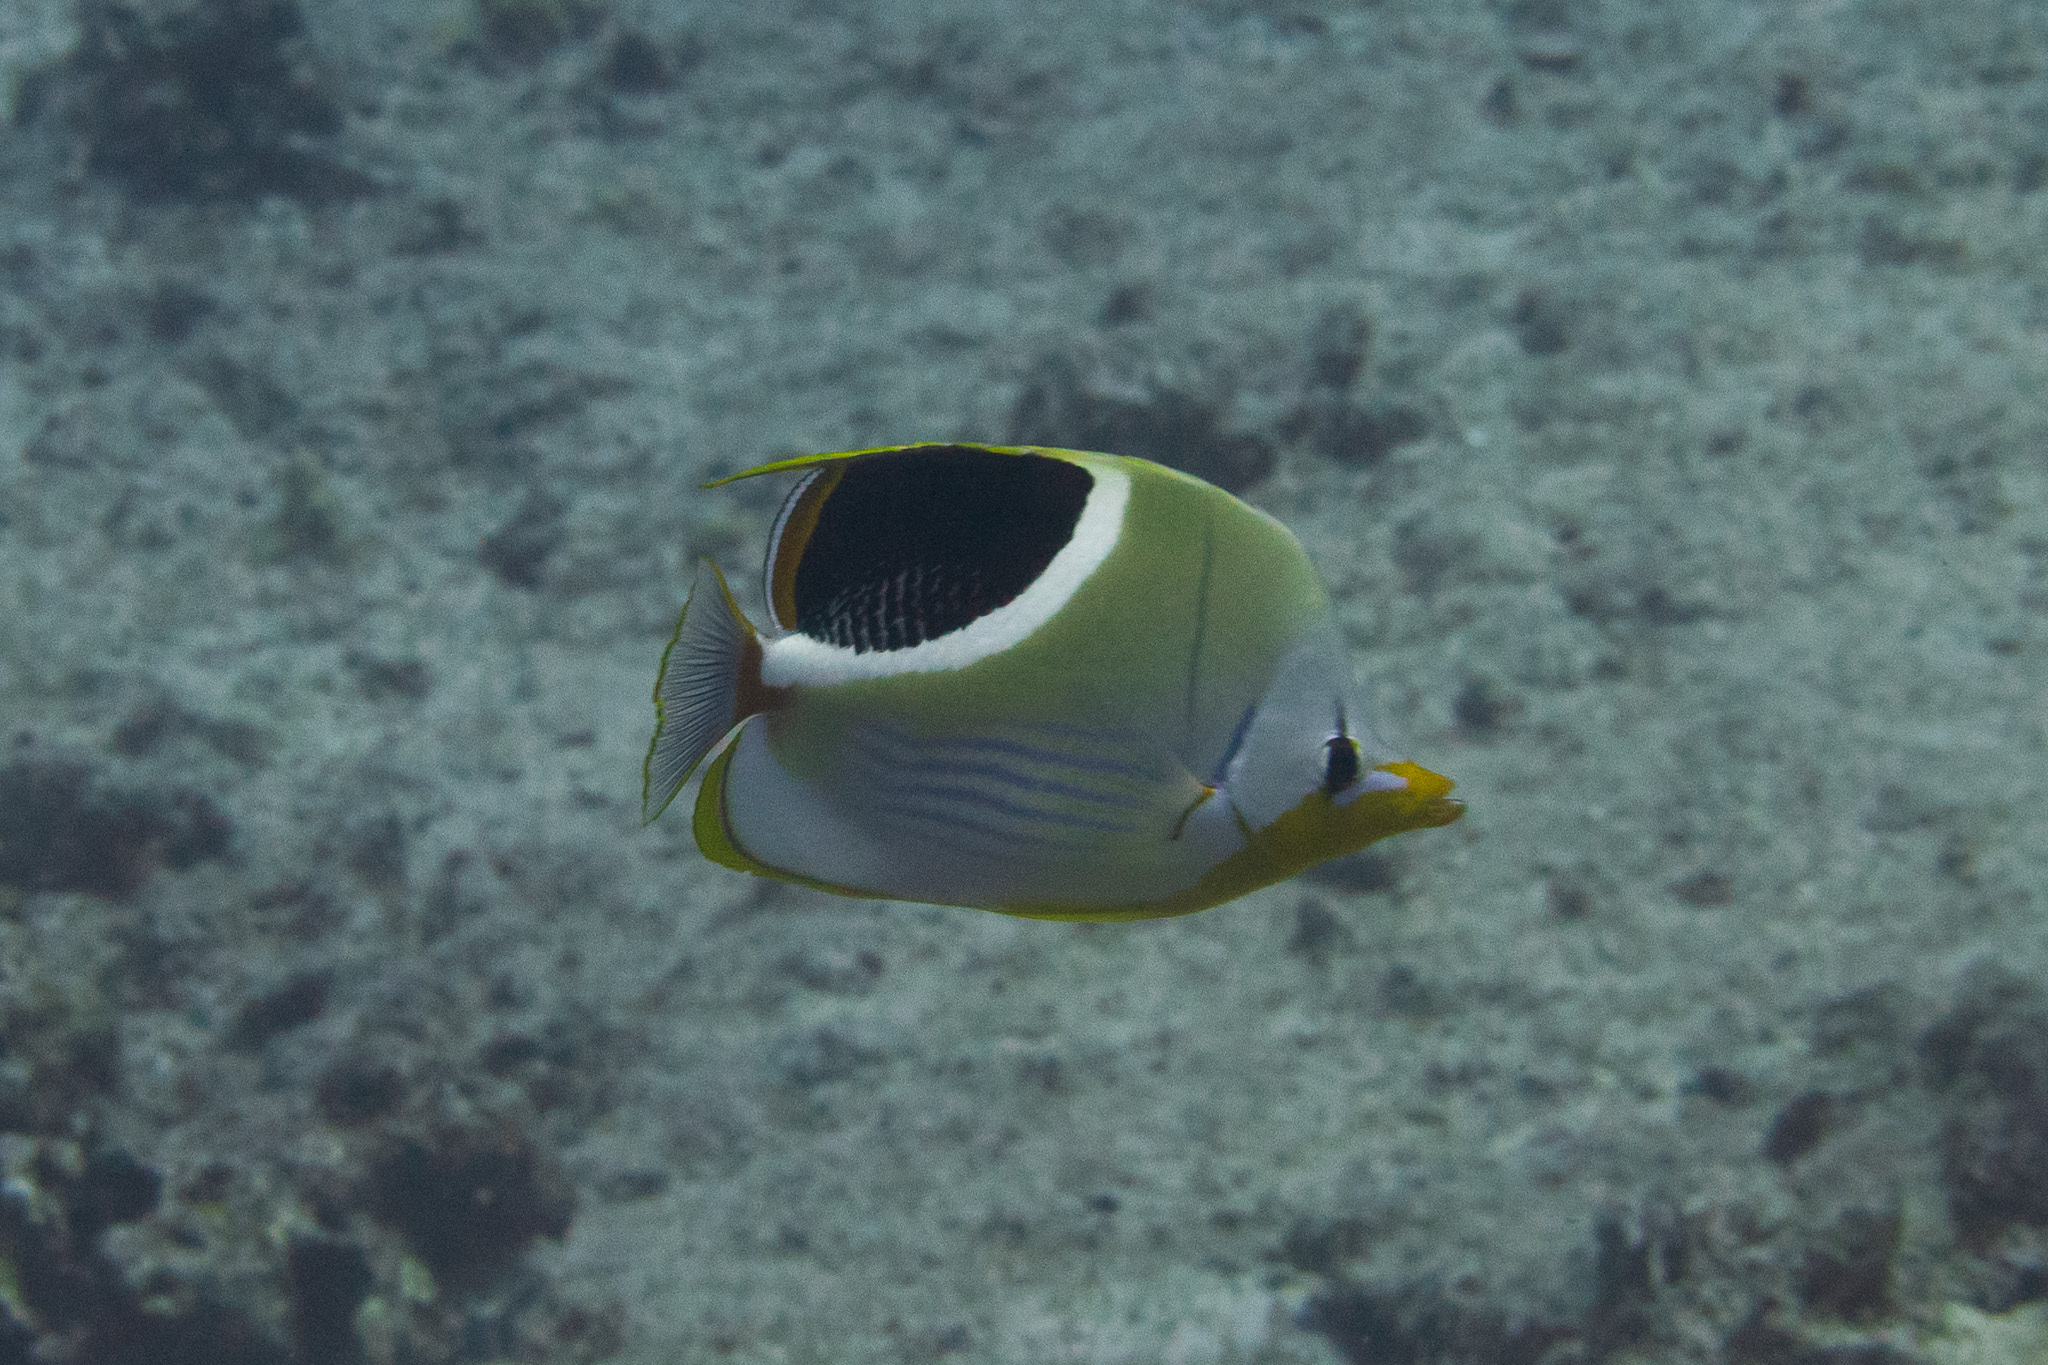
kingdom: Animalia
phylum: Chordata
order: Perciformes
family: Chaetodontidae
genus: Chaetodon
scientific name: Chaetodon ephippium
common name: Saddled butterflyfish
